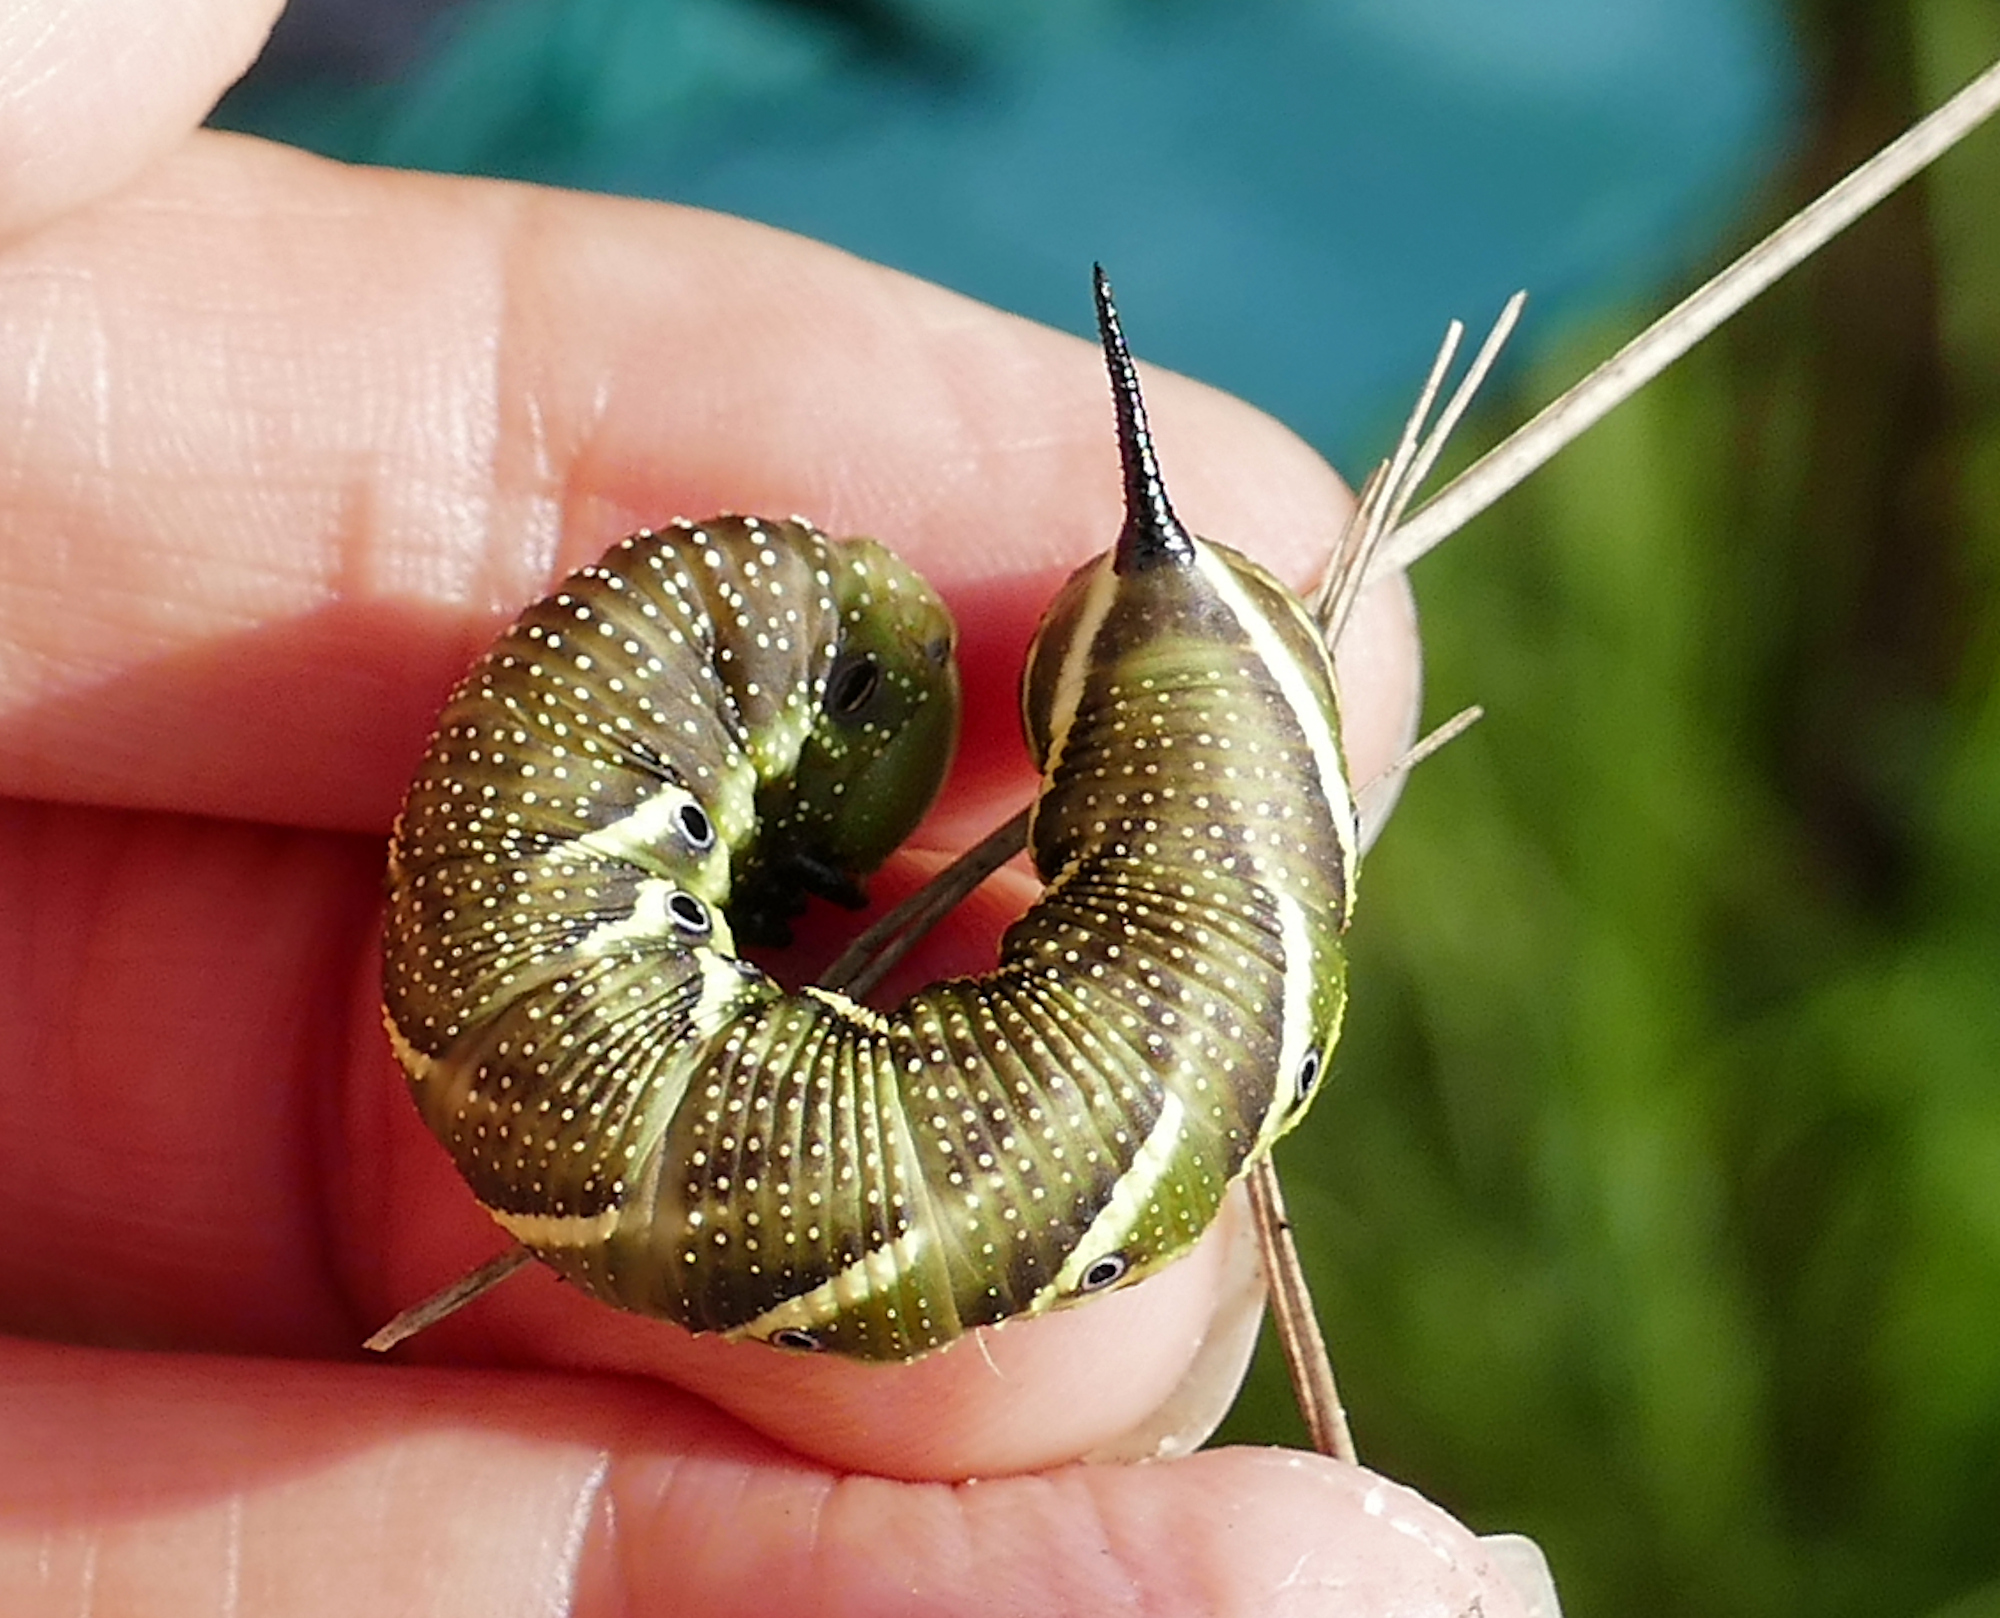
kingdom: Animalia
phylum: Arthropoda
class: Insecta
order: Lepidoptera
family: Sphingidae
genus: Manduca
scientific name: Manduca quinquemaculatus
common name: Five-spotted hawk-moth
